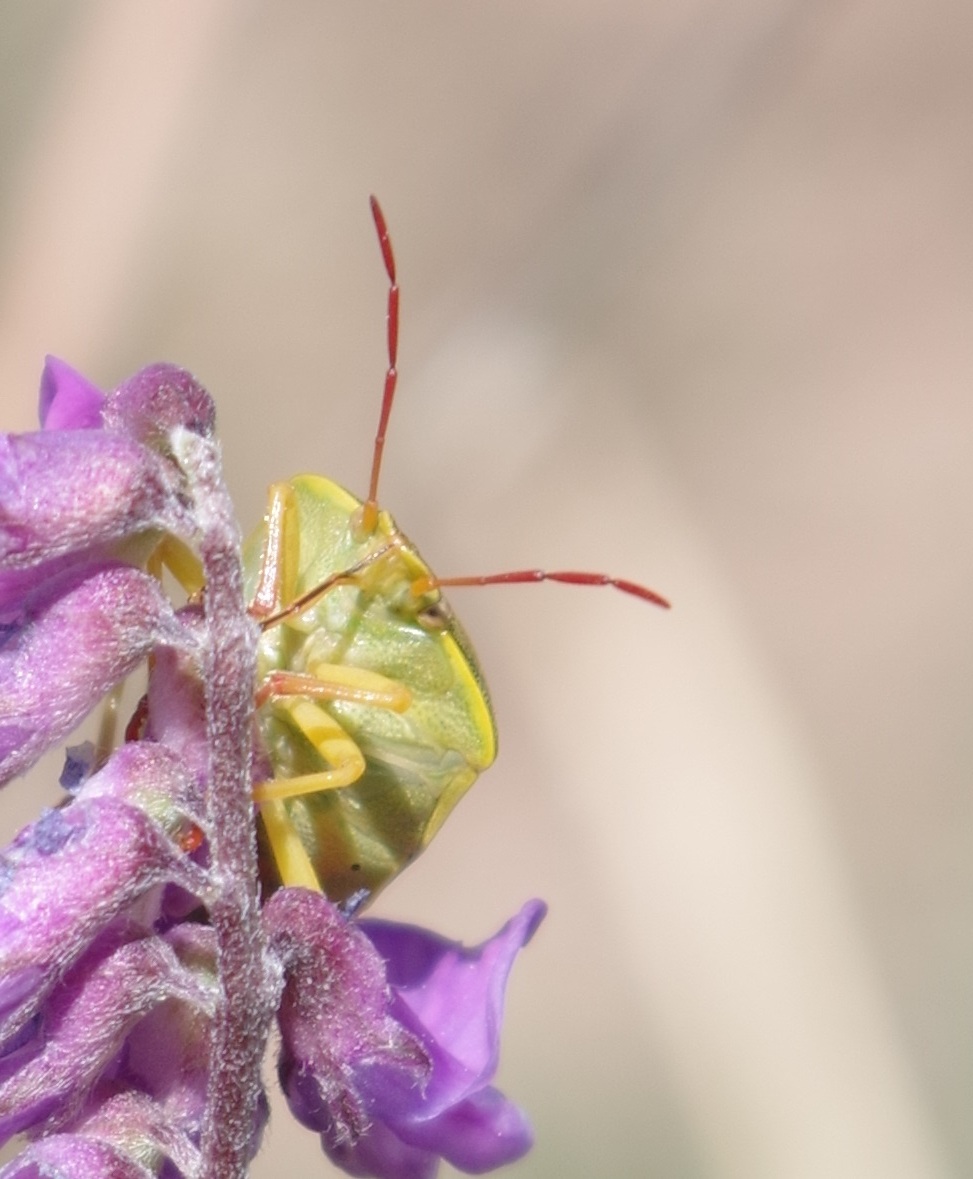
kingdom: Animalia
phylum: Arthropoda
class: Insecta
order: Hemiptera
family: Pentatomidae
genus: Piezodorus
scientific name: Piezodorus lituratus
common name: Stink bug
